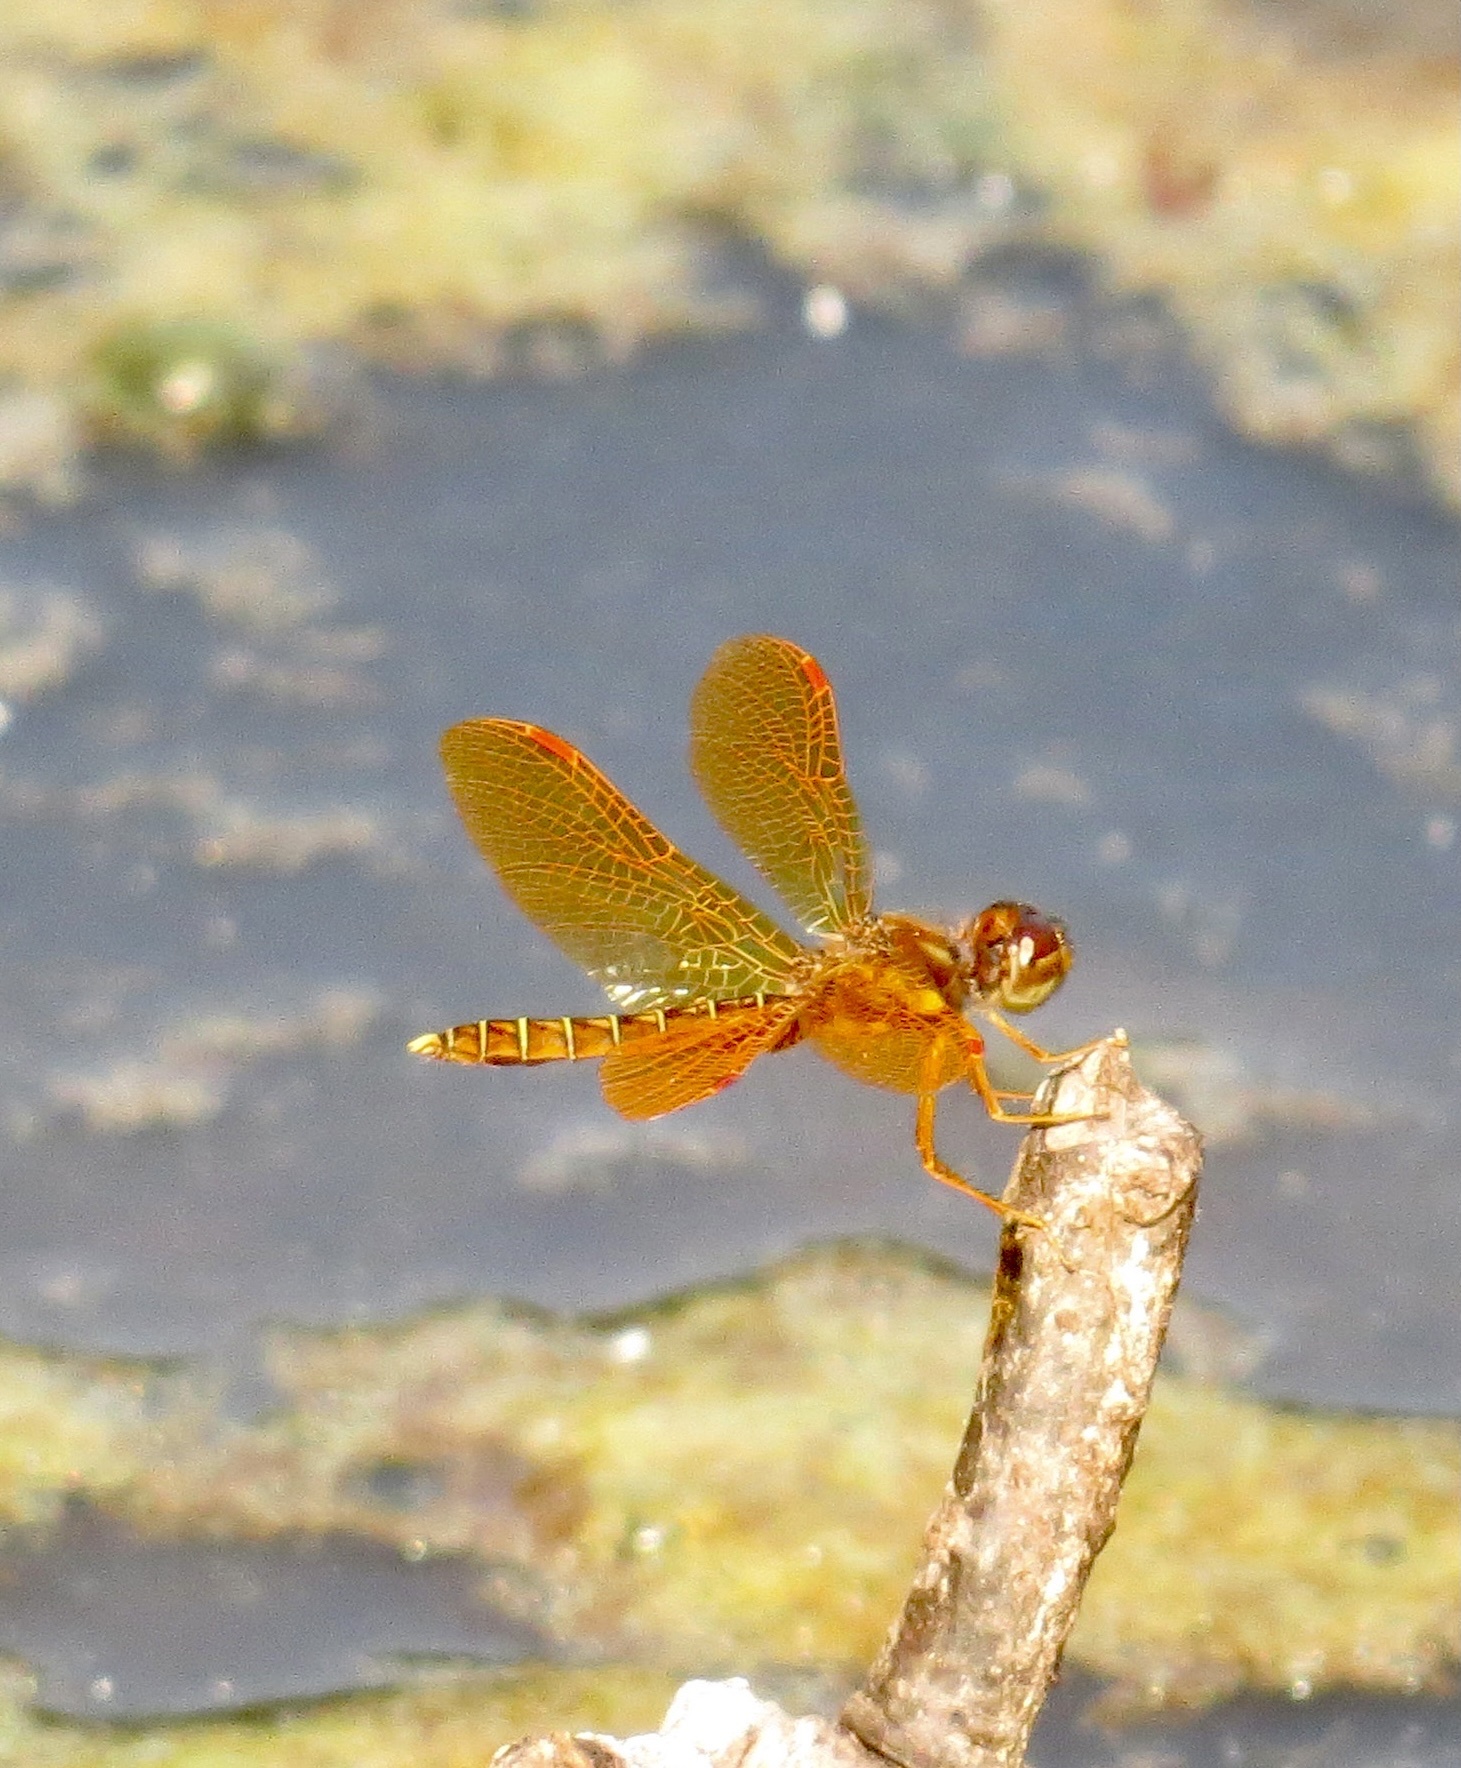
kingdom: Animalia
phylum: Arthropoda
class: Insecta
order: Odonata
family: Libellulidae
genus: Perithemis
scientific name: Perithemis tenera
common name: Eastern amberwing
